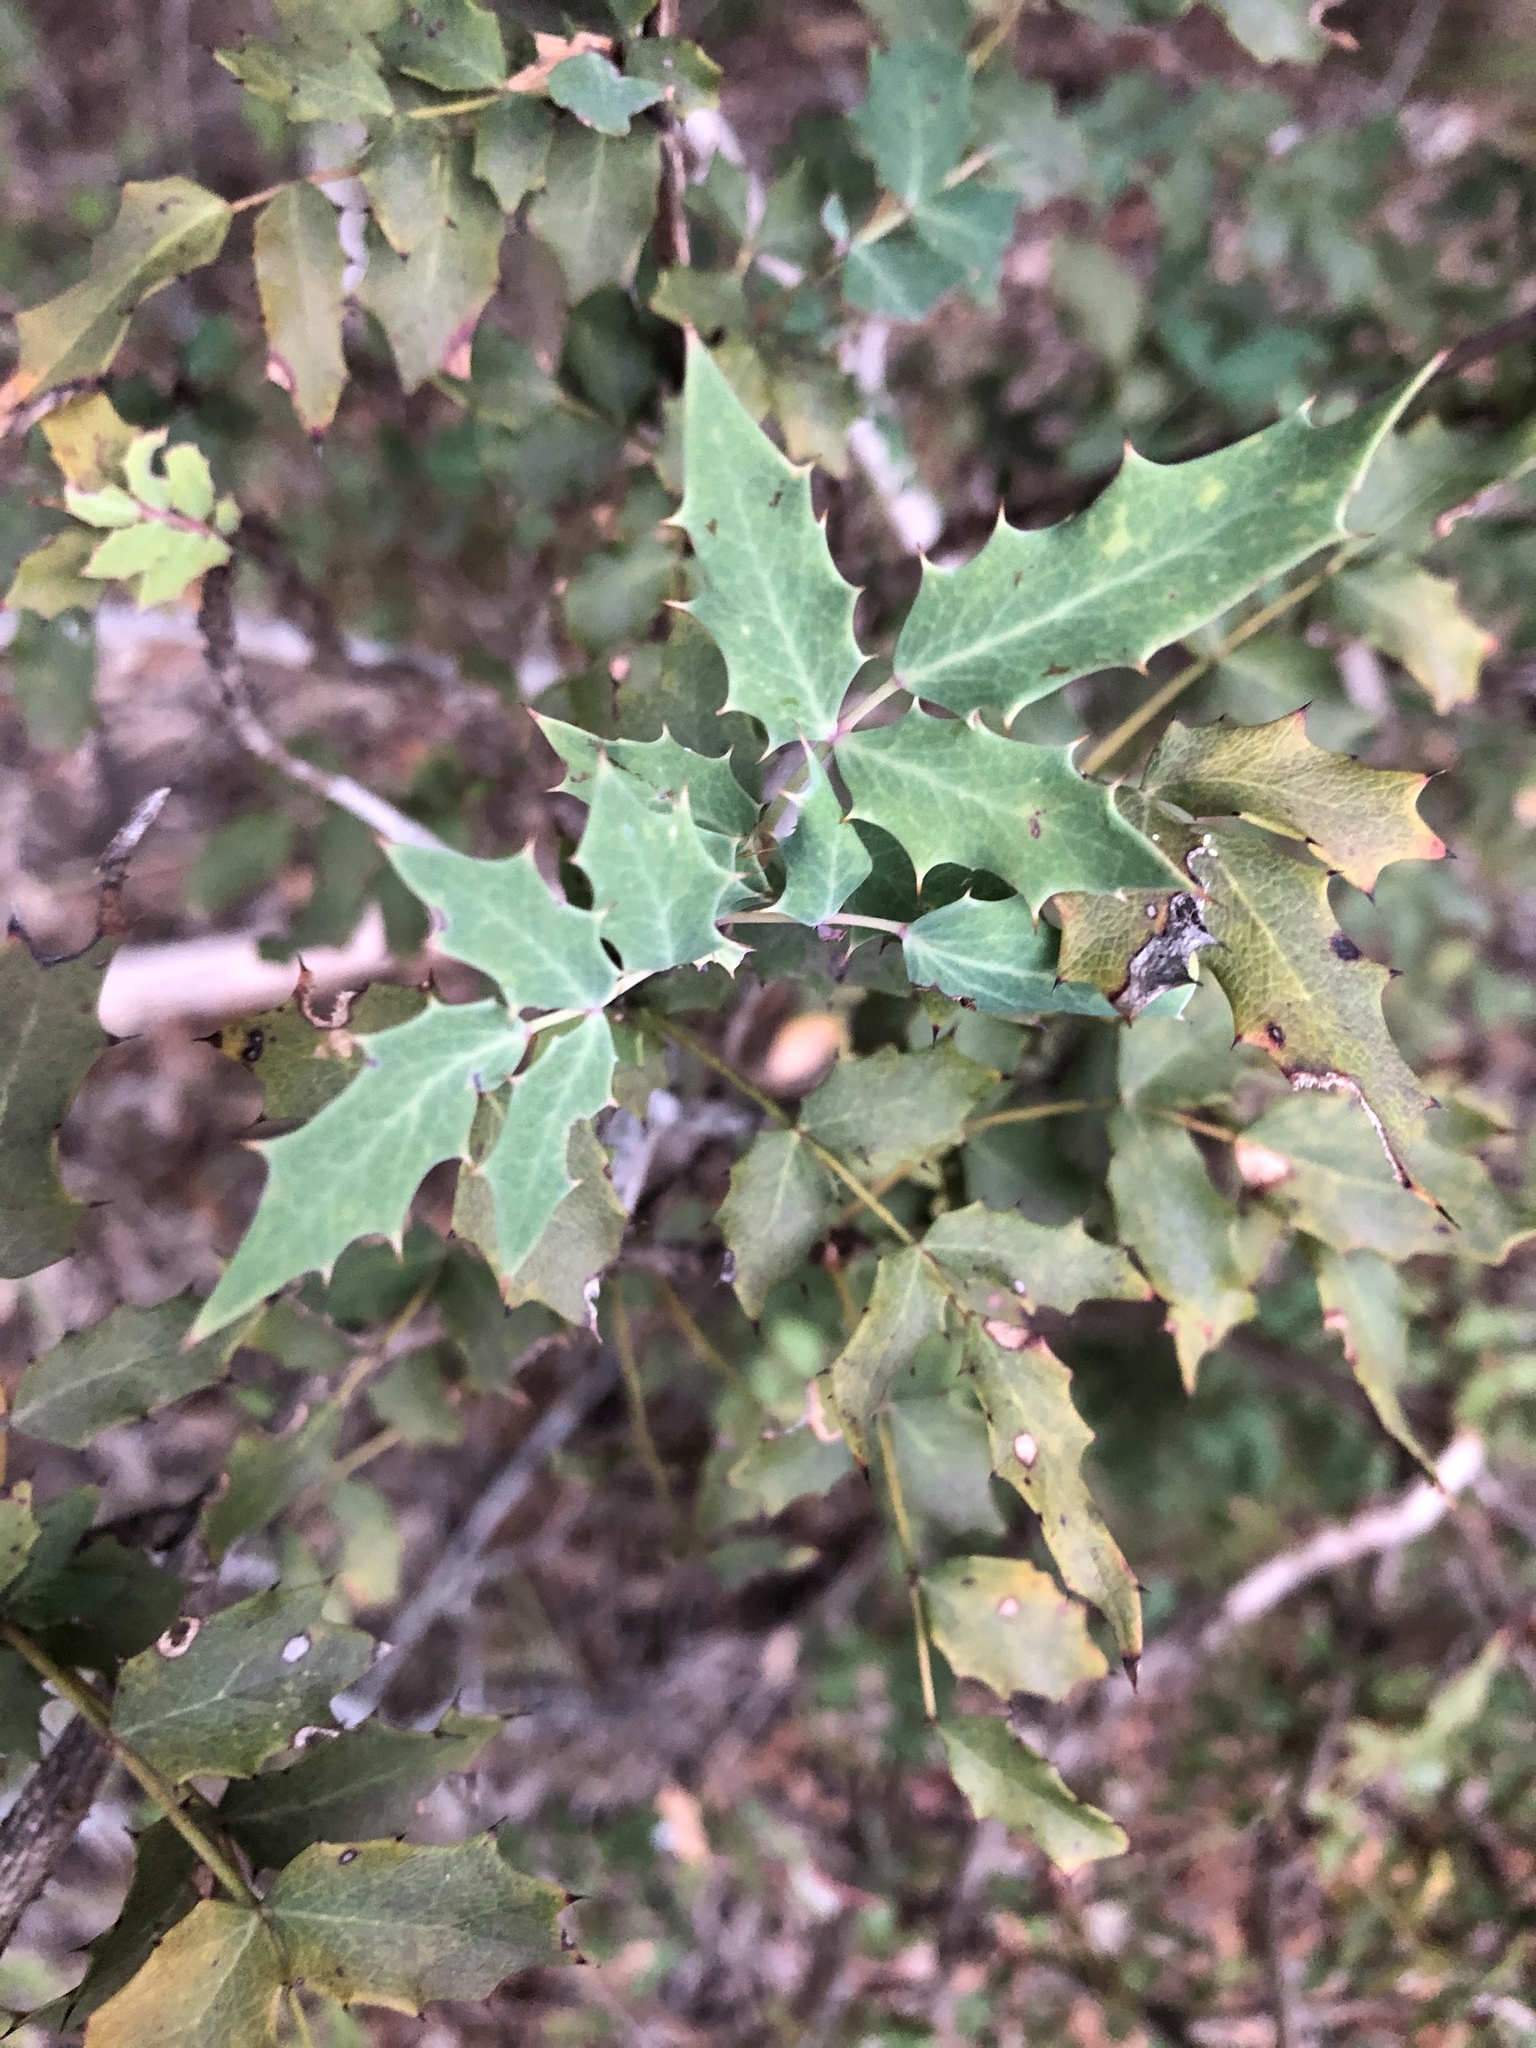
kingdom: Plantae
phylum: Tracheophyta
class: Magnoliopsida
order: Ranunculales
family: Berberidaceae
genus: Berberis
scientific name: Berberis swaseyi
